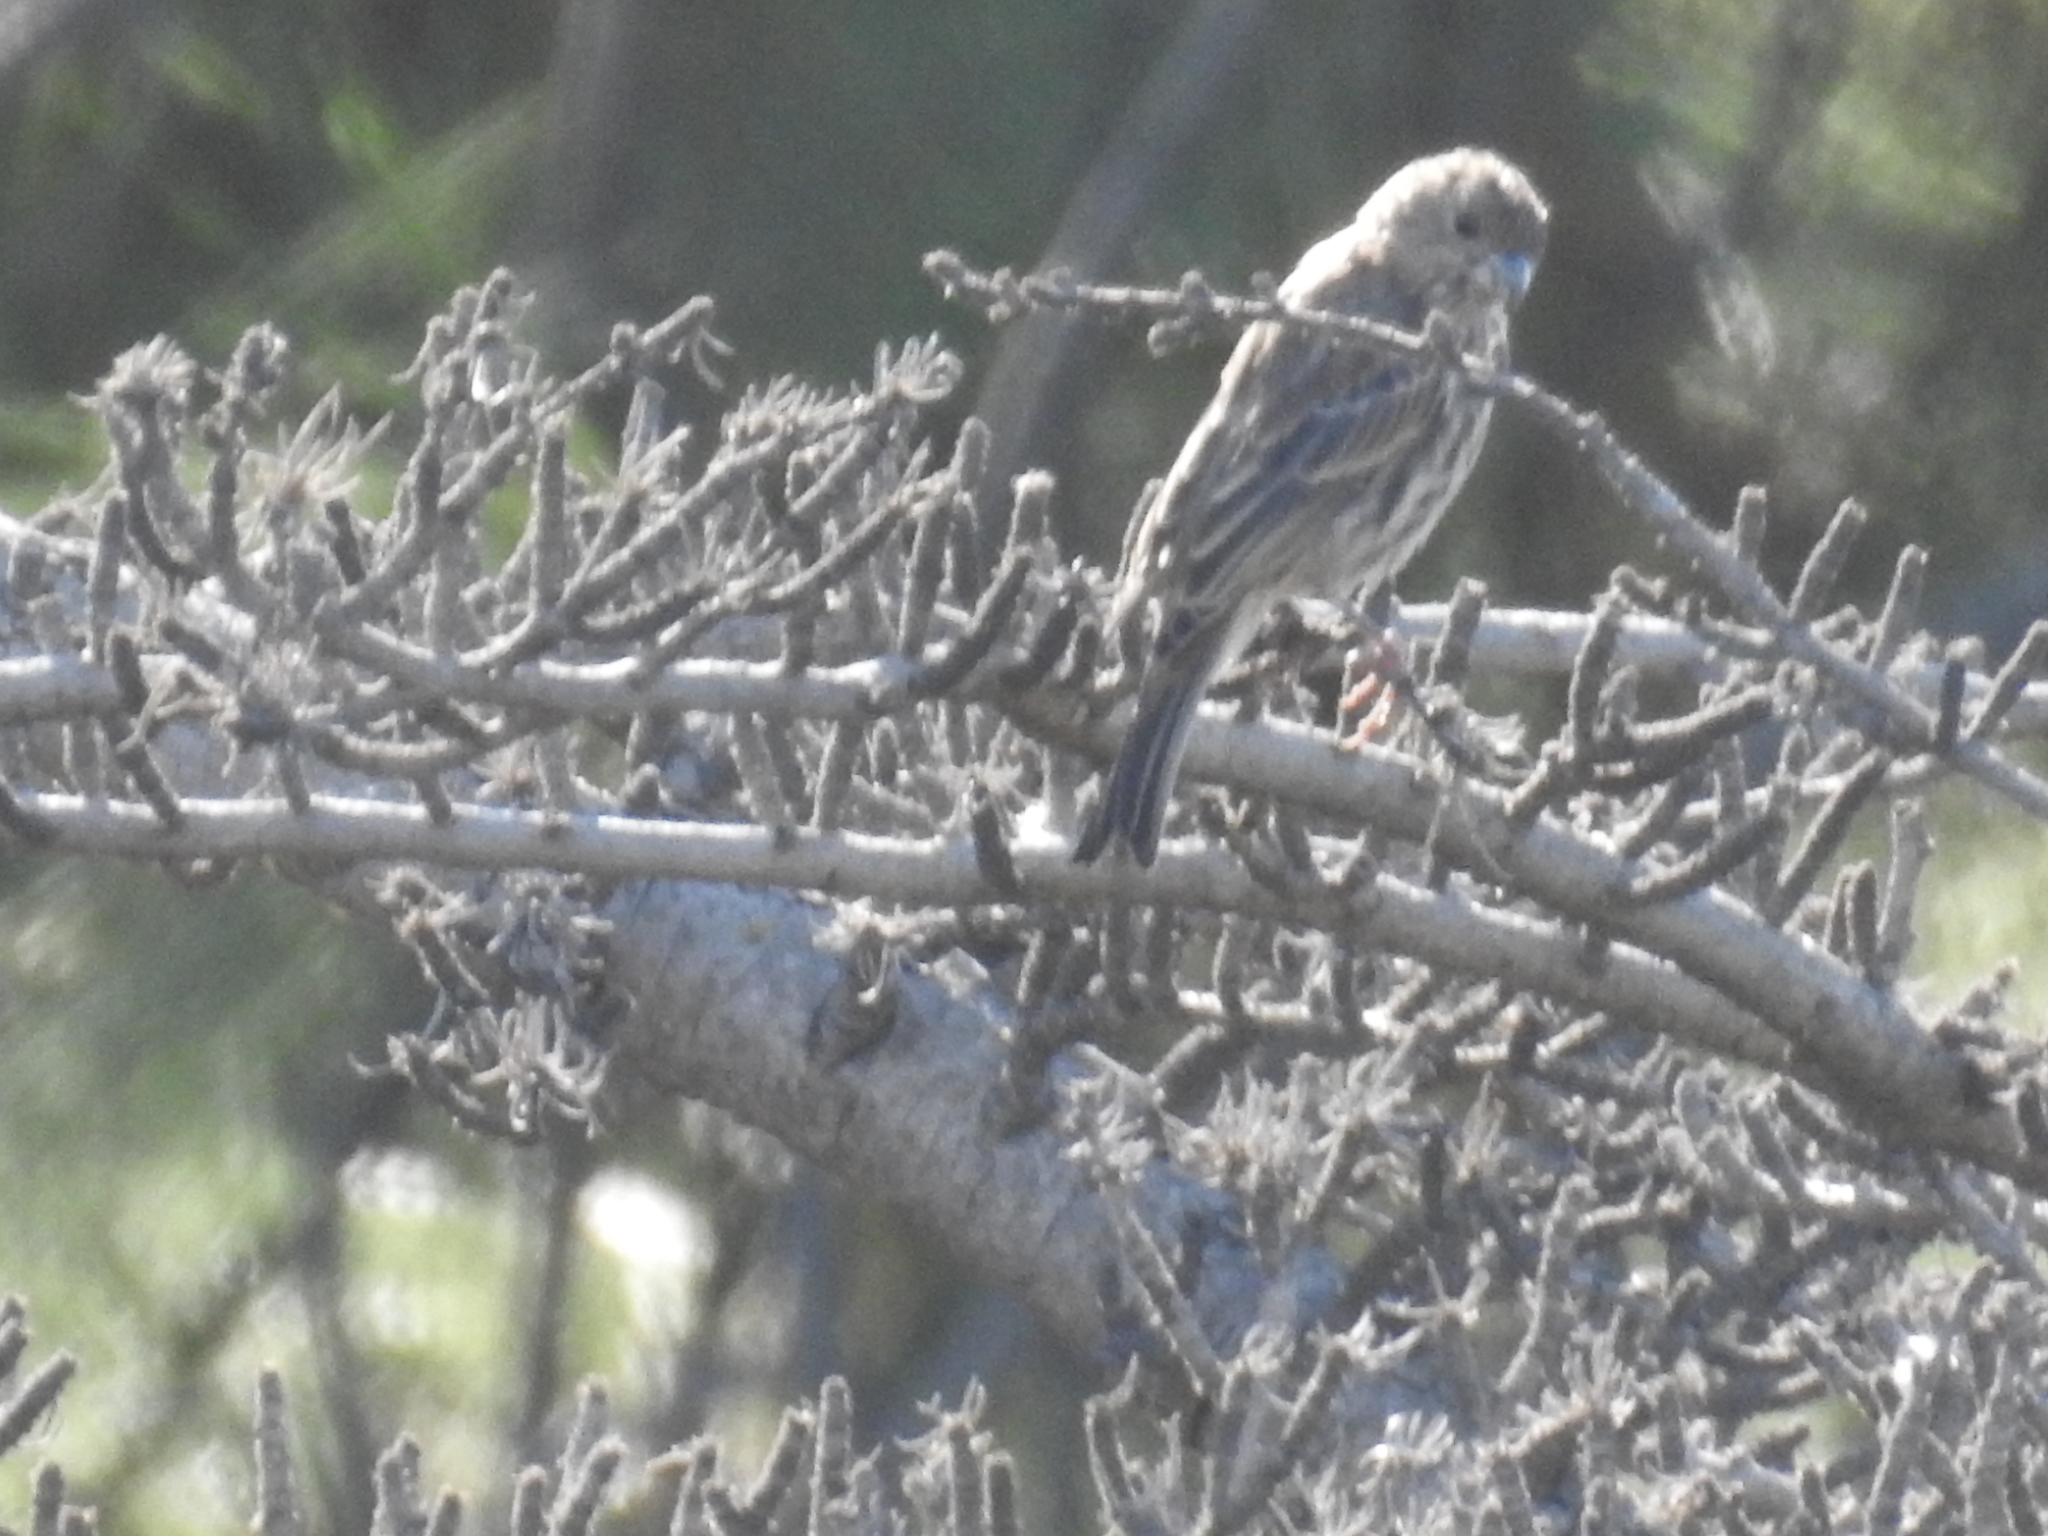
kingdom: Animalia
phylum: Chordata
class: Aves
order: Passeriformes
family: Fringillidae
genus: Haemorhous
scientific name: Haemorhous mexicanus
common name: House finch
